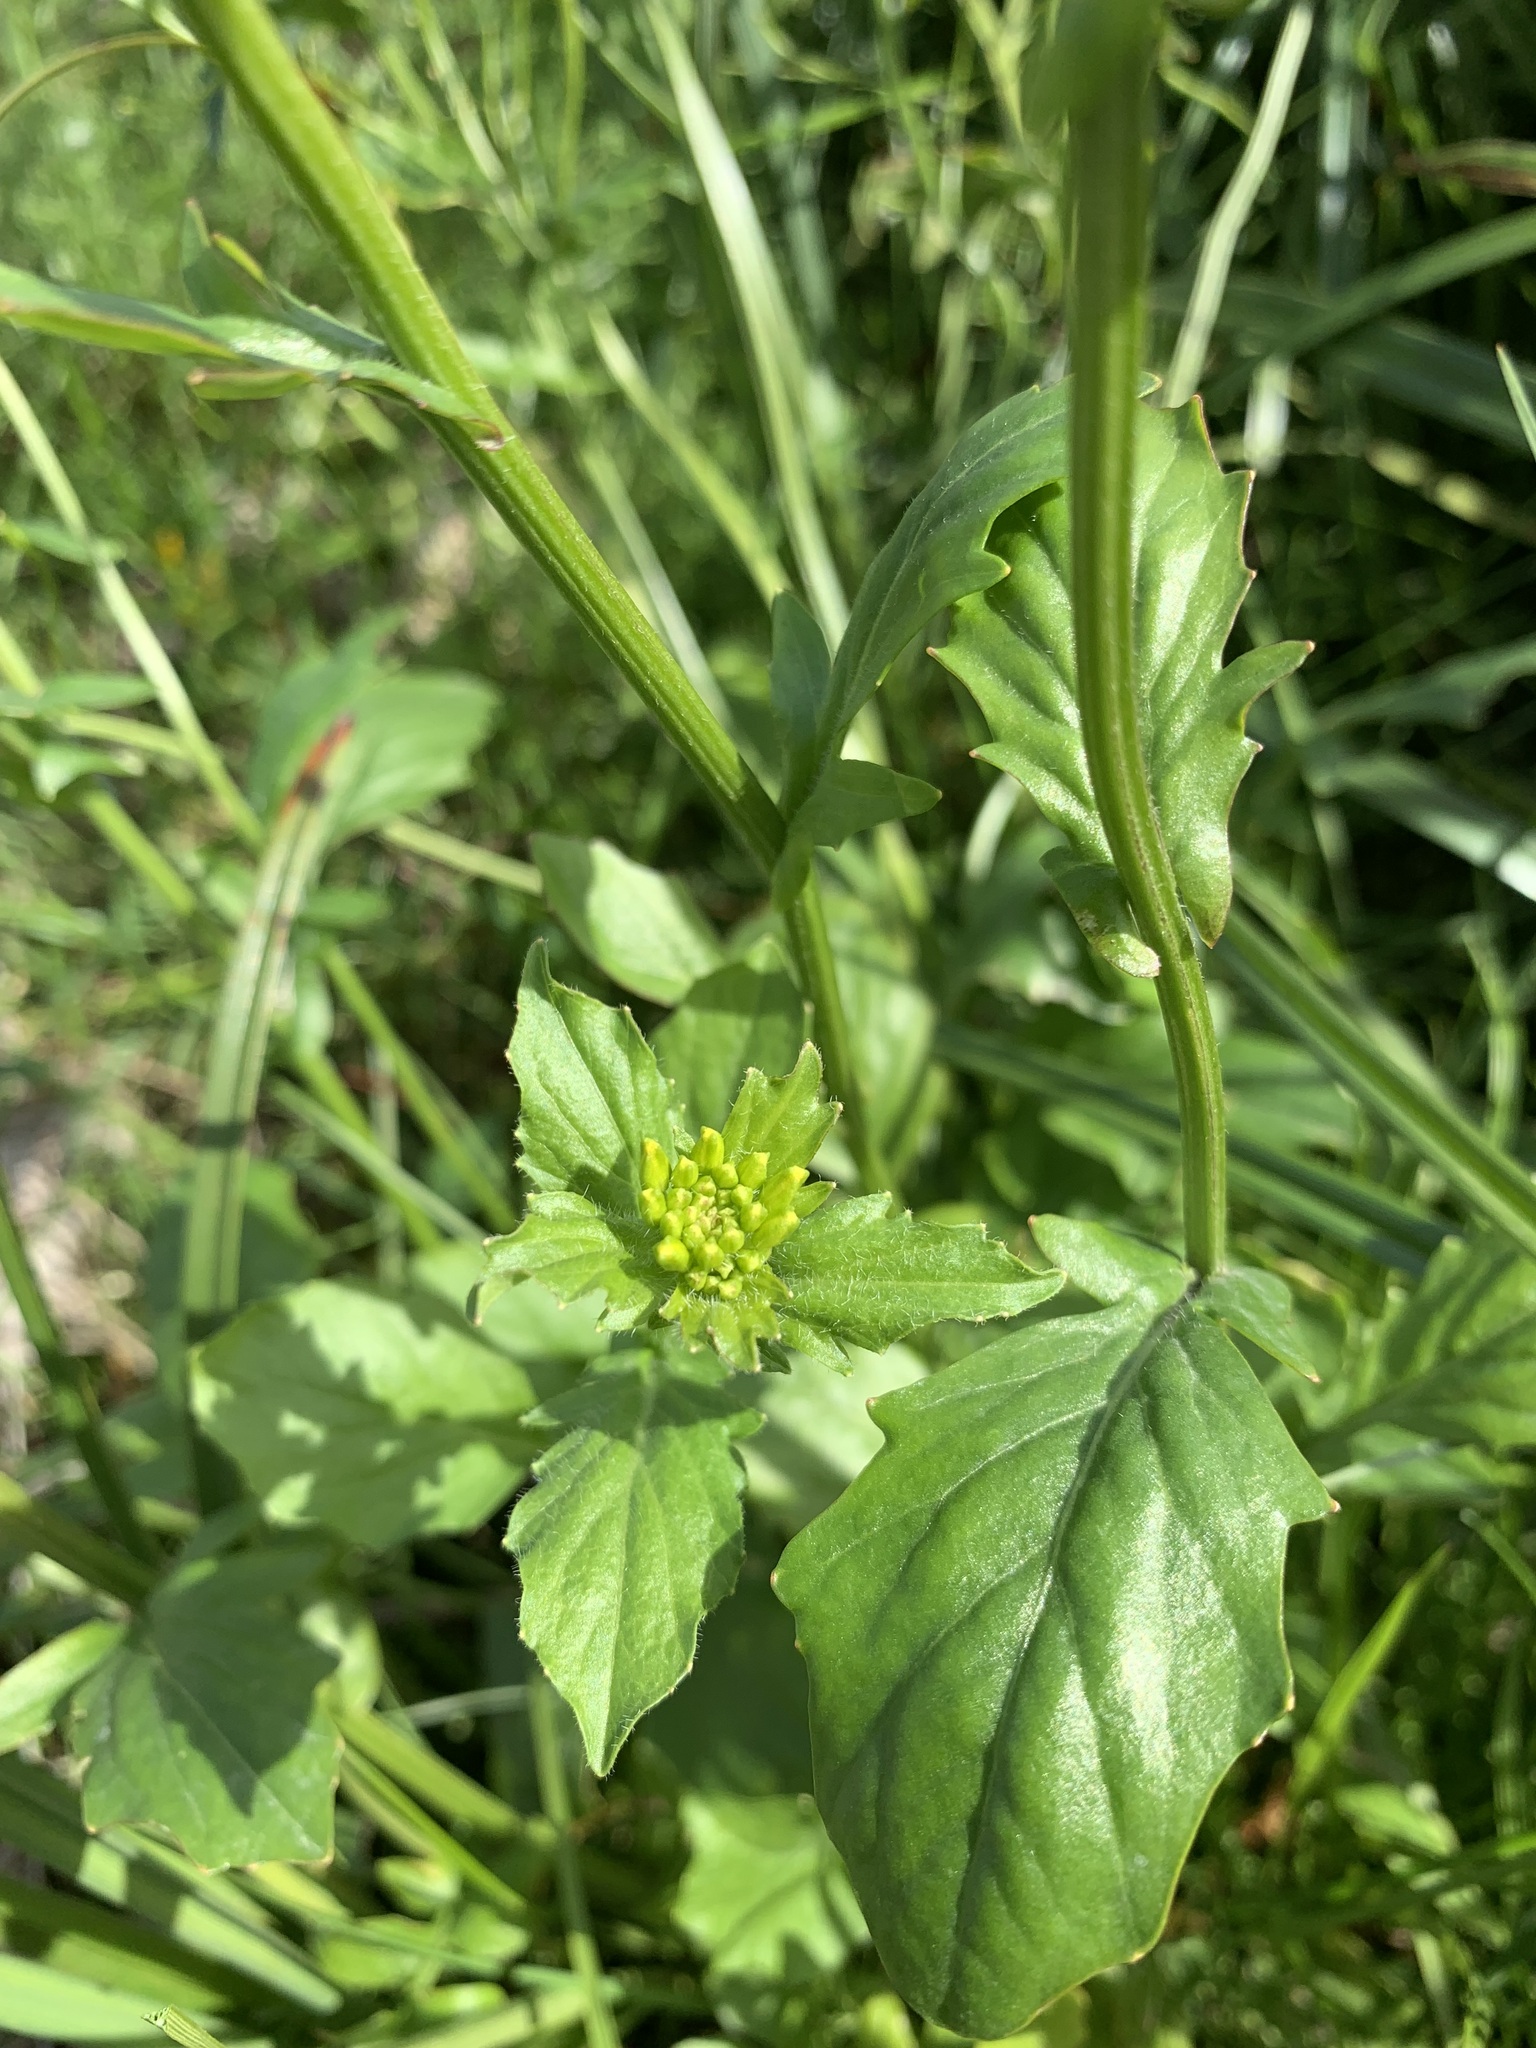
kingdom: Plantae
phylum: Tracheophyta
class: Magnoliopsida
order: Brassicales
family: Brassicaceae
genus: Barbarea
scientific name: Barbarea vulgaris
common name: Cressy-greens
